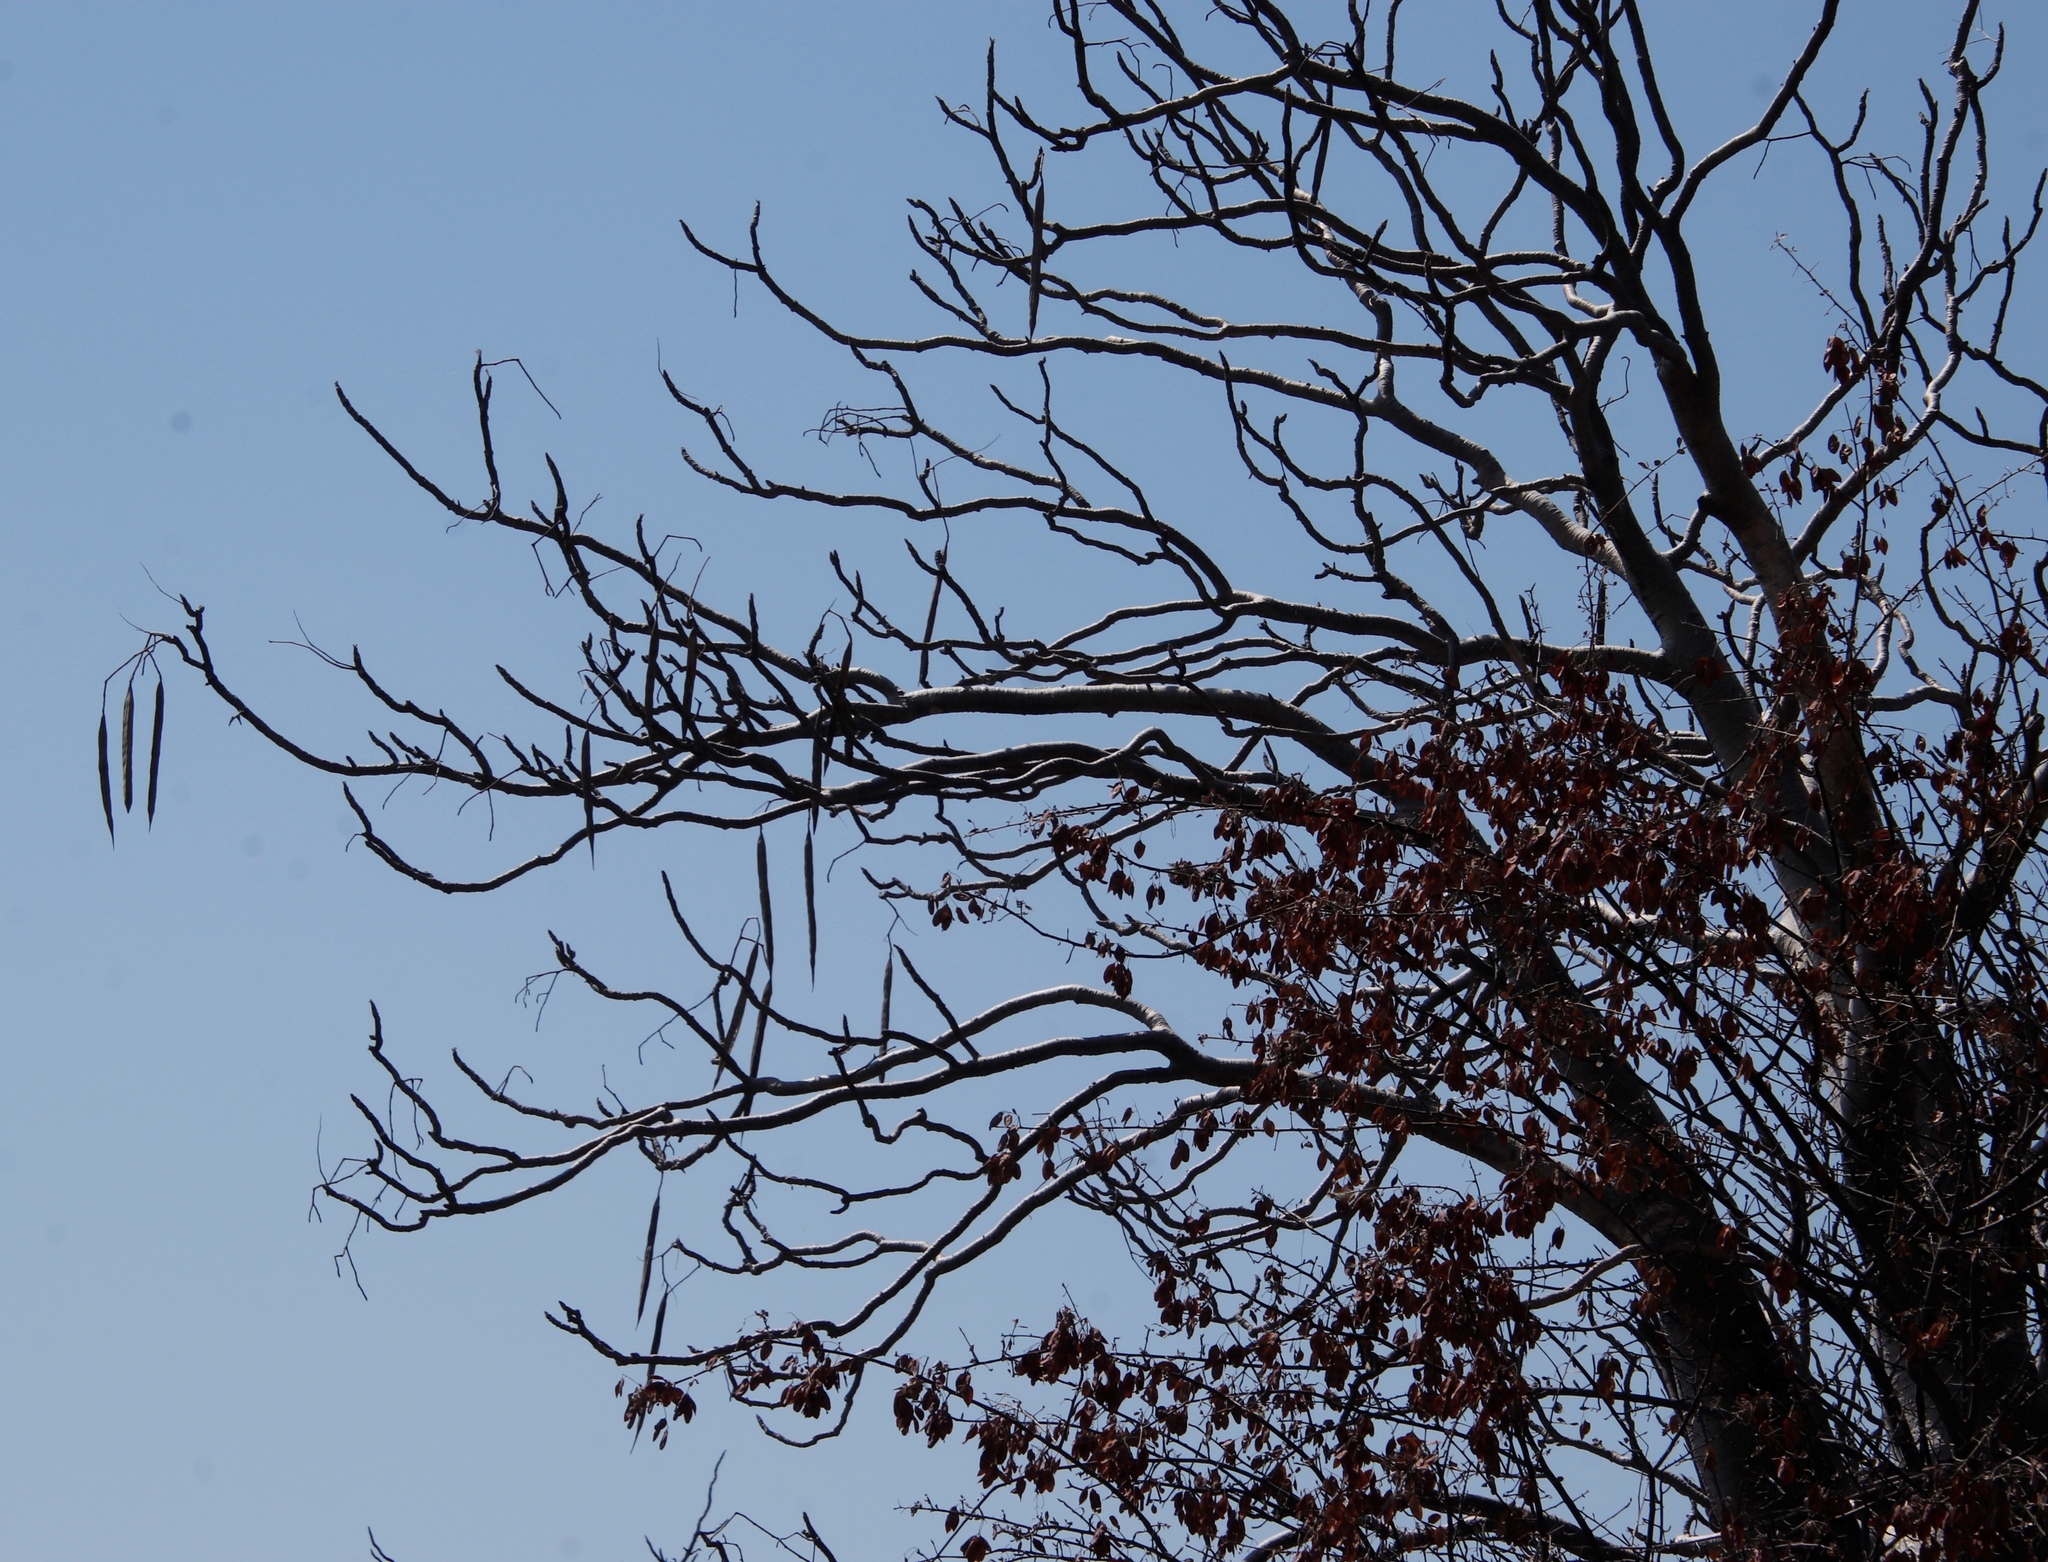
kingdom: Plantae
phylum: Tracheophyta
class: Magnoliopsida
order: Brassicales
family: Moringaceae
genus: Moringa
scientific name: Moringa ovalifolia
